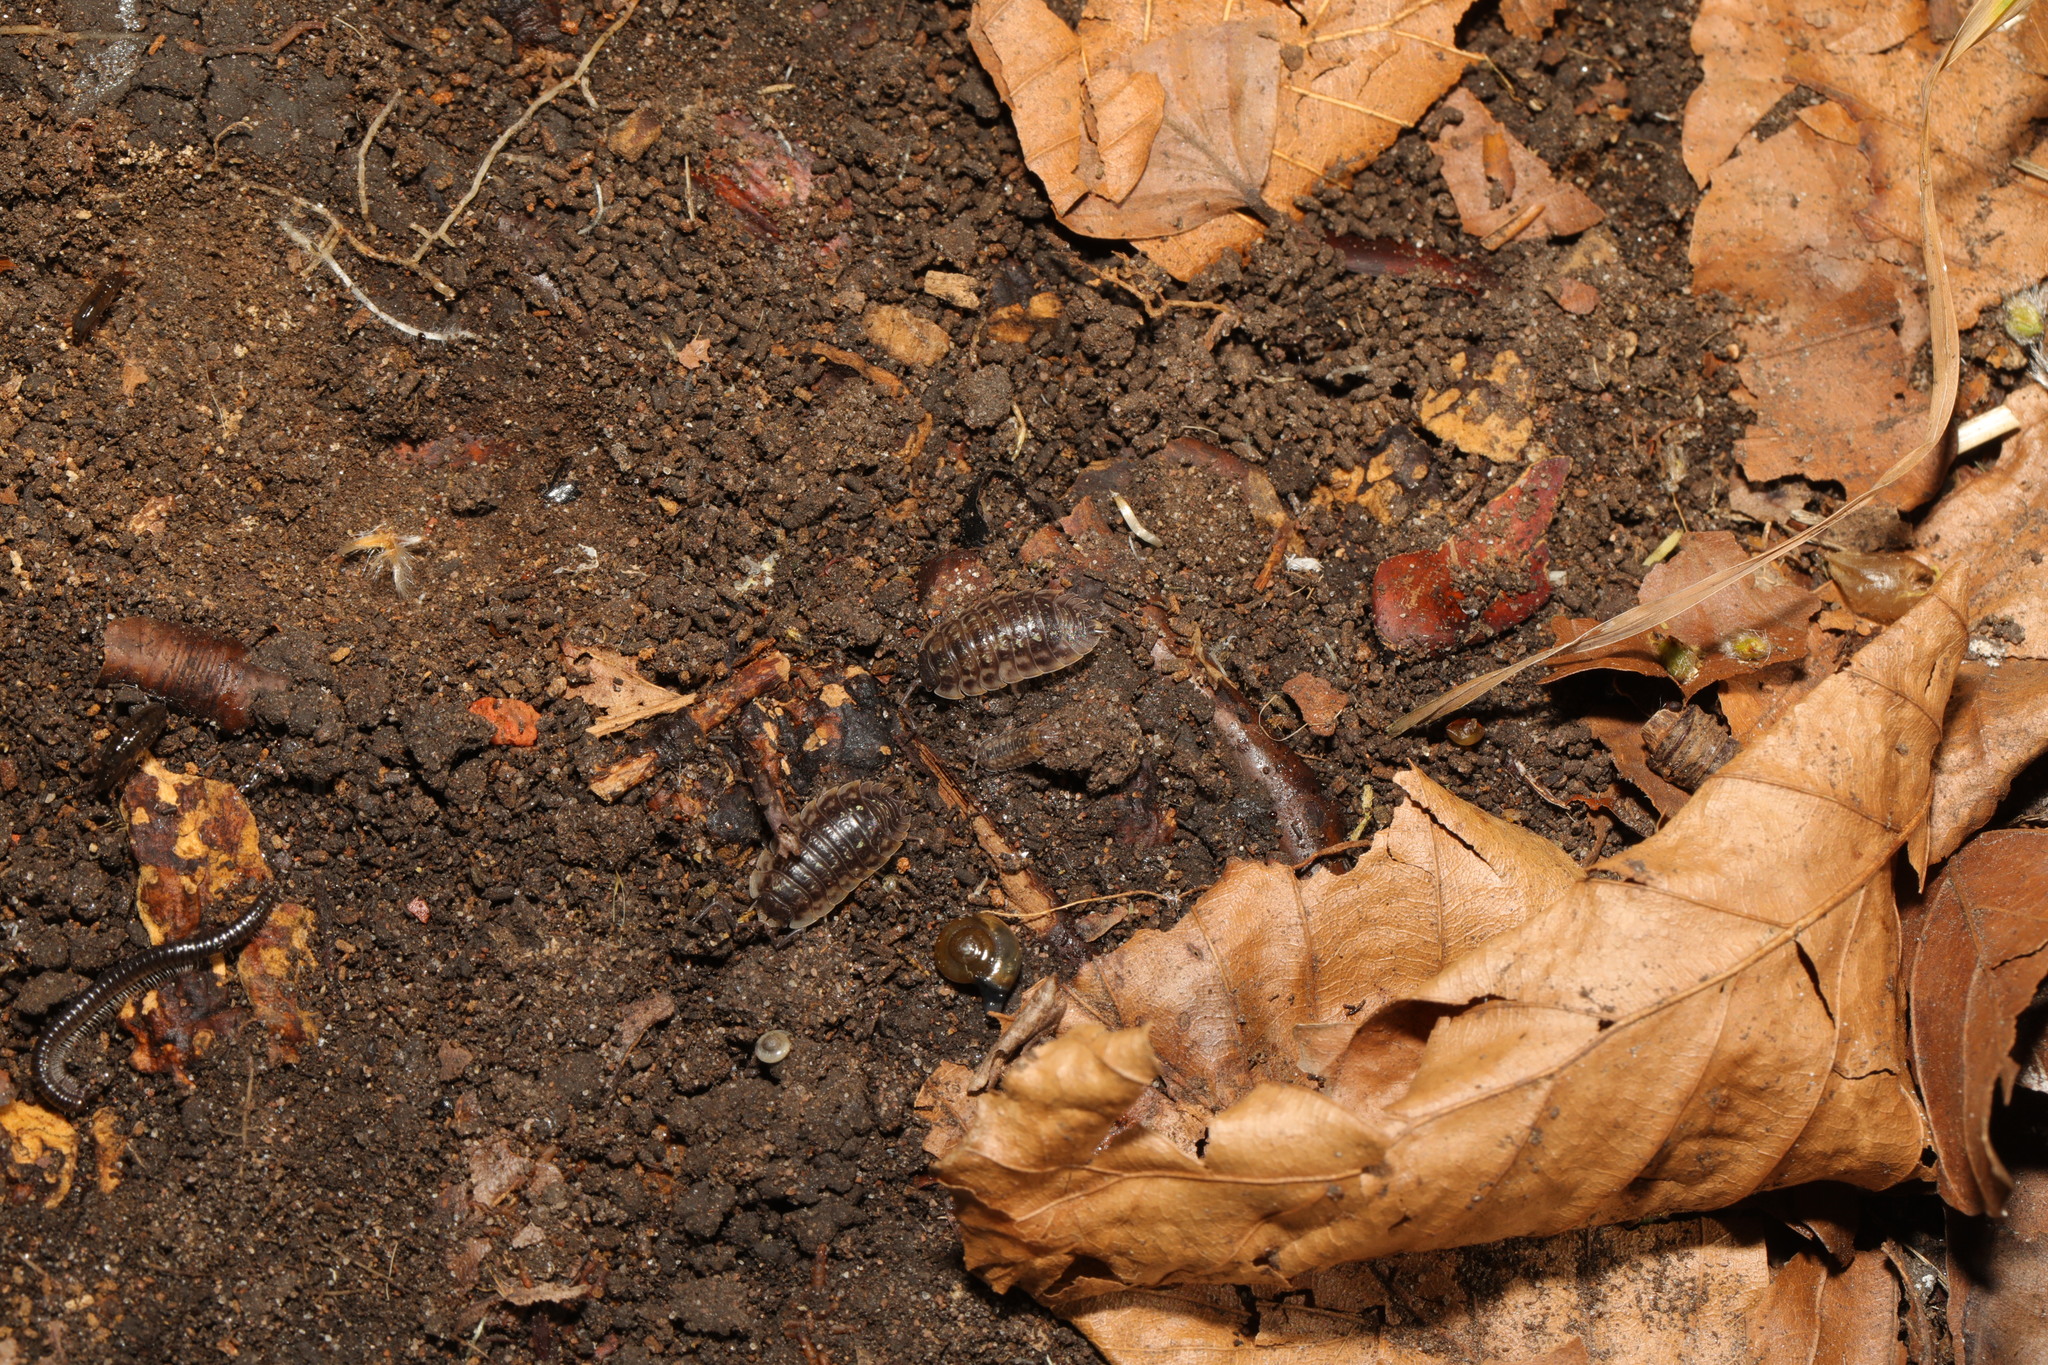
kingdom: Animalia
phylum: Arthropoda
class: Malacostraca
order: Isopoda
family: Oniscidae
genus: Oniscus
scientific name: Oniscus asellus
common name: Common shiny woodlouse
